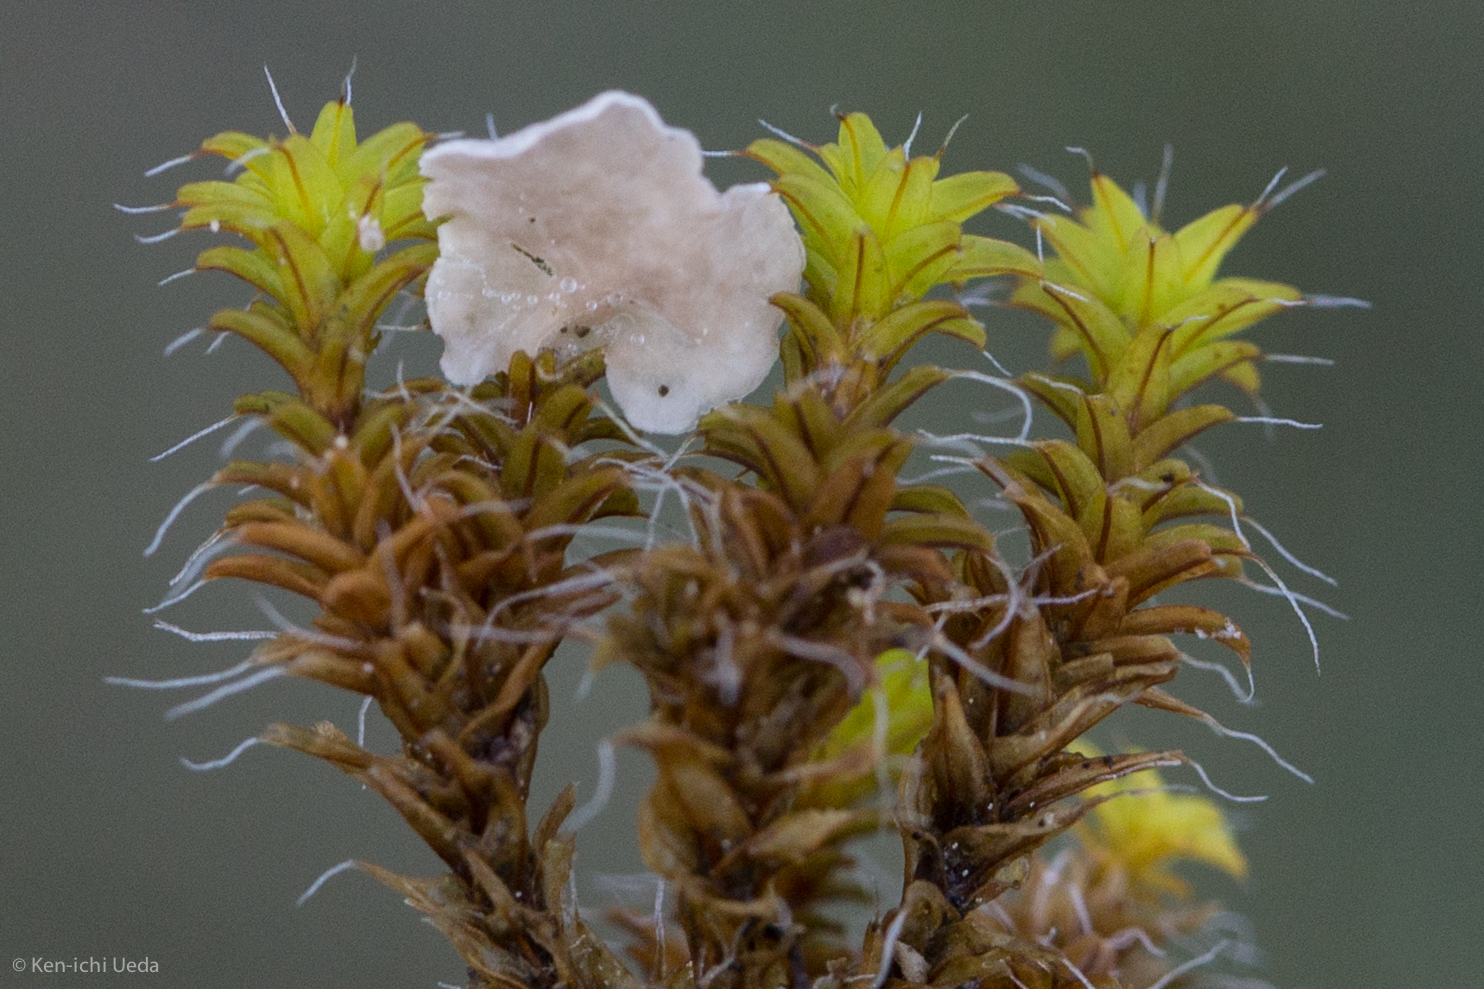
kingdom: Fungi
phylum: Basidiomycota
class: Agaricomycetes
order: Agaricales
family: Hygrophoraceae
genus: Arrhenia
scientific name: Arrhenia retiruga
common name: Small moss oysterling
